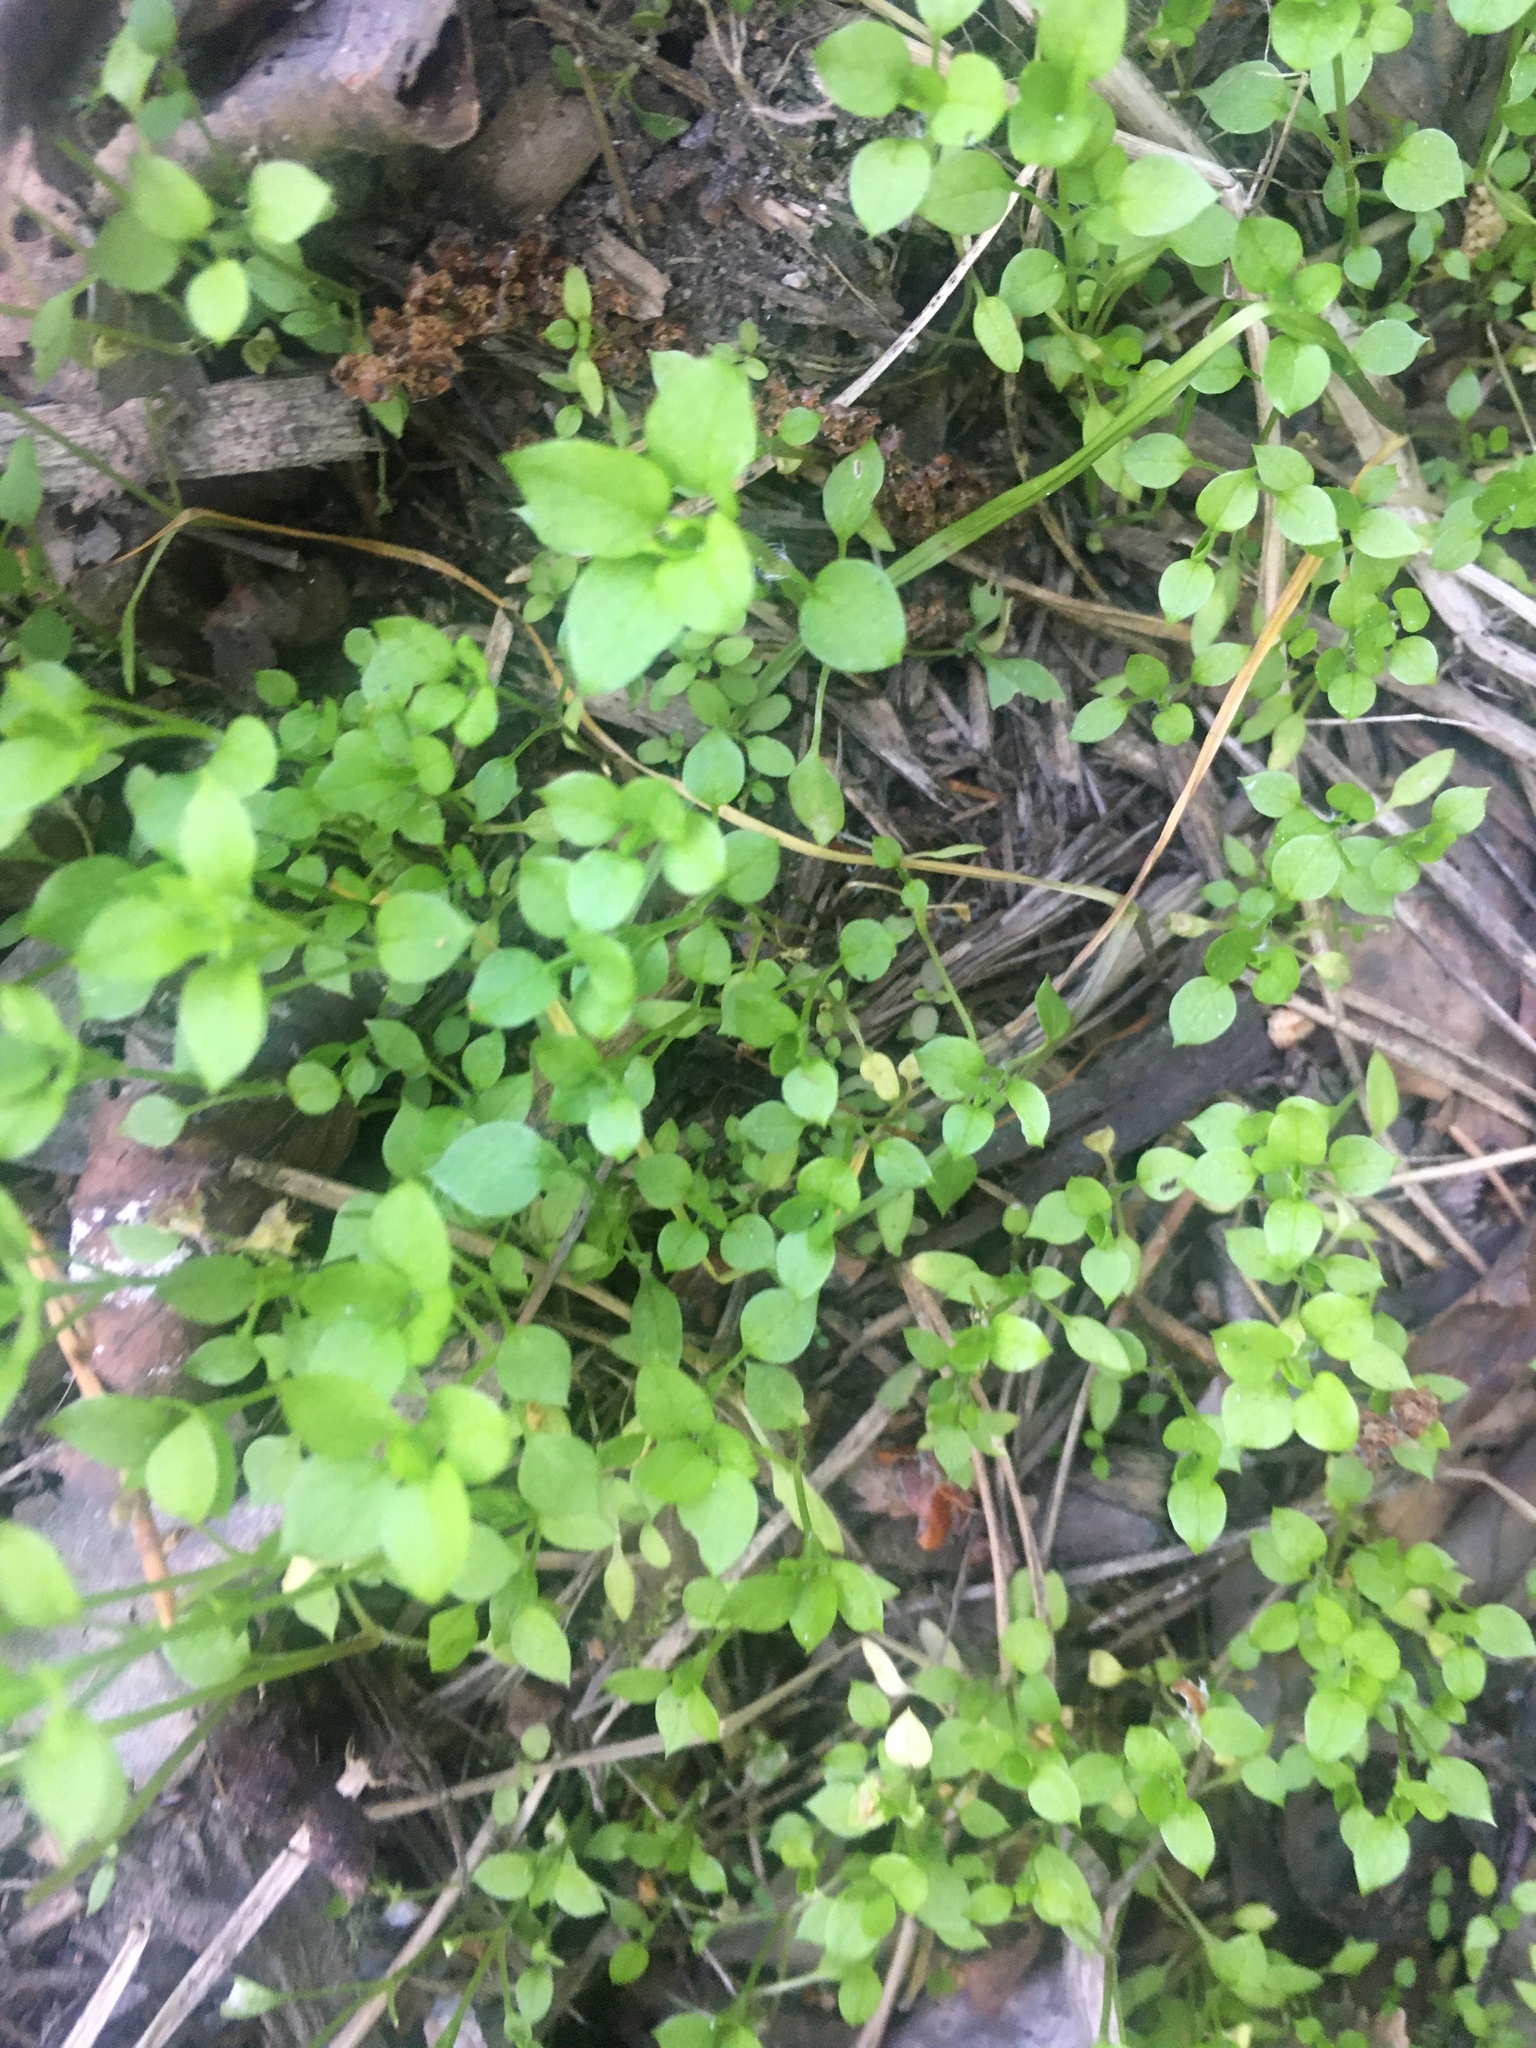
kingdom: Plantae
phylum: Tracheophyta
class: Magnoliopsida
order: Caryophyllales
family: Caryophyllaceae
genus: Stellaria
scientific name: Stellaria media
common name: Common chickweed
